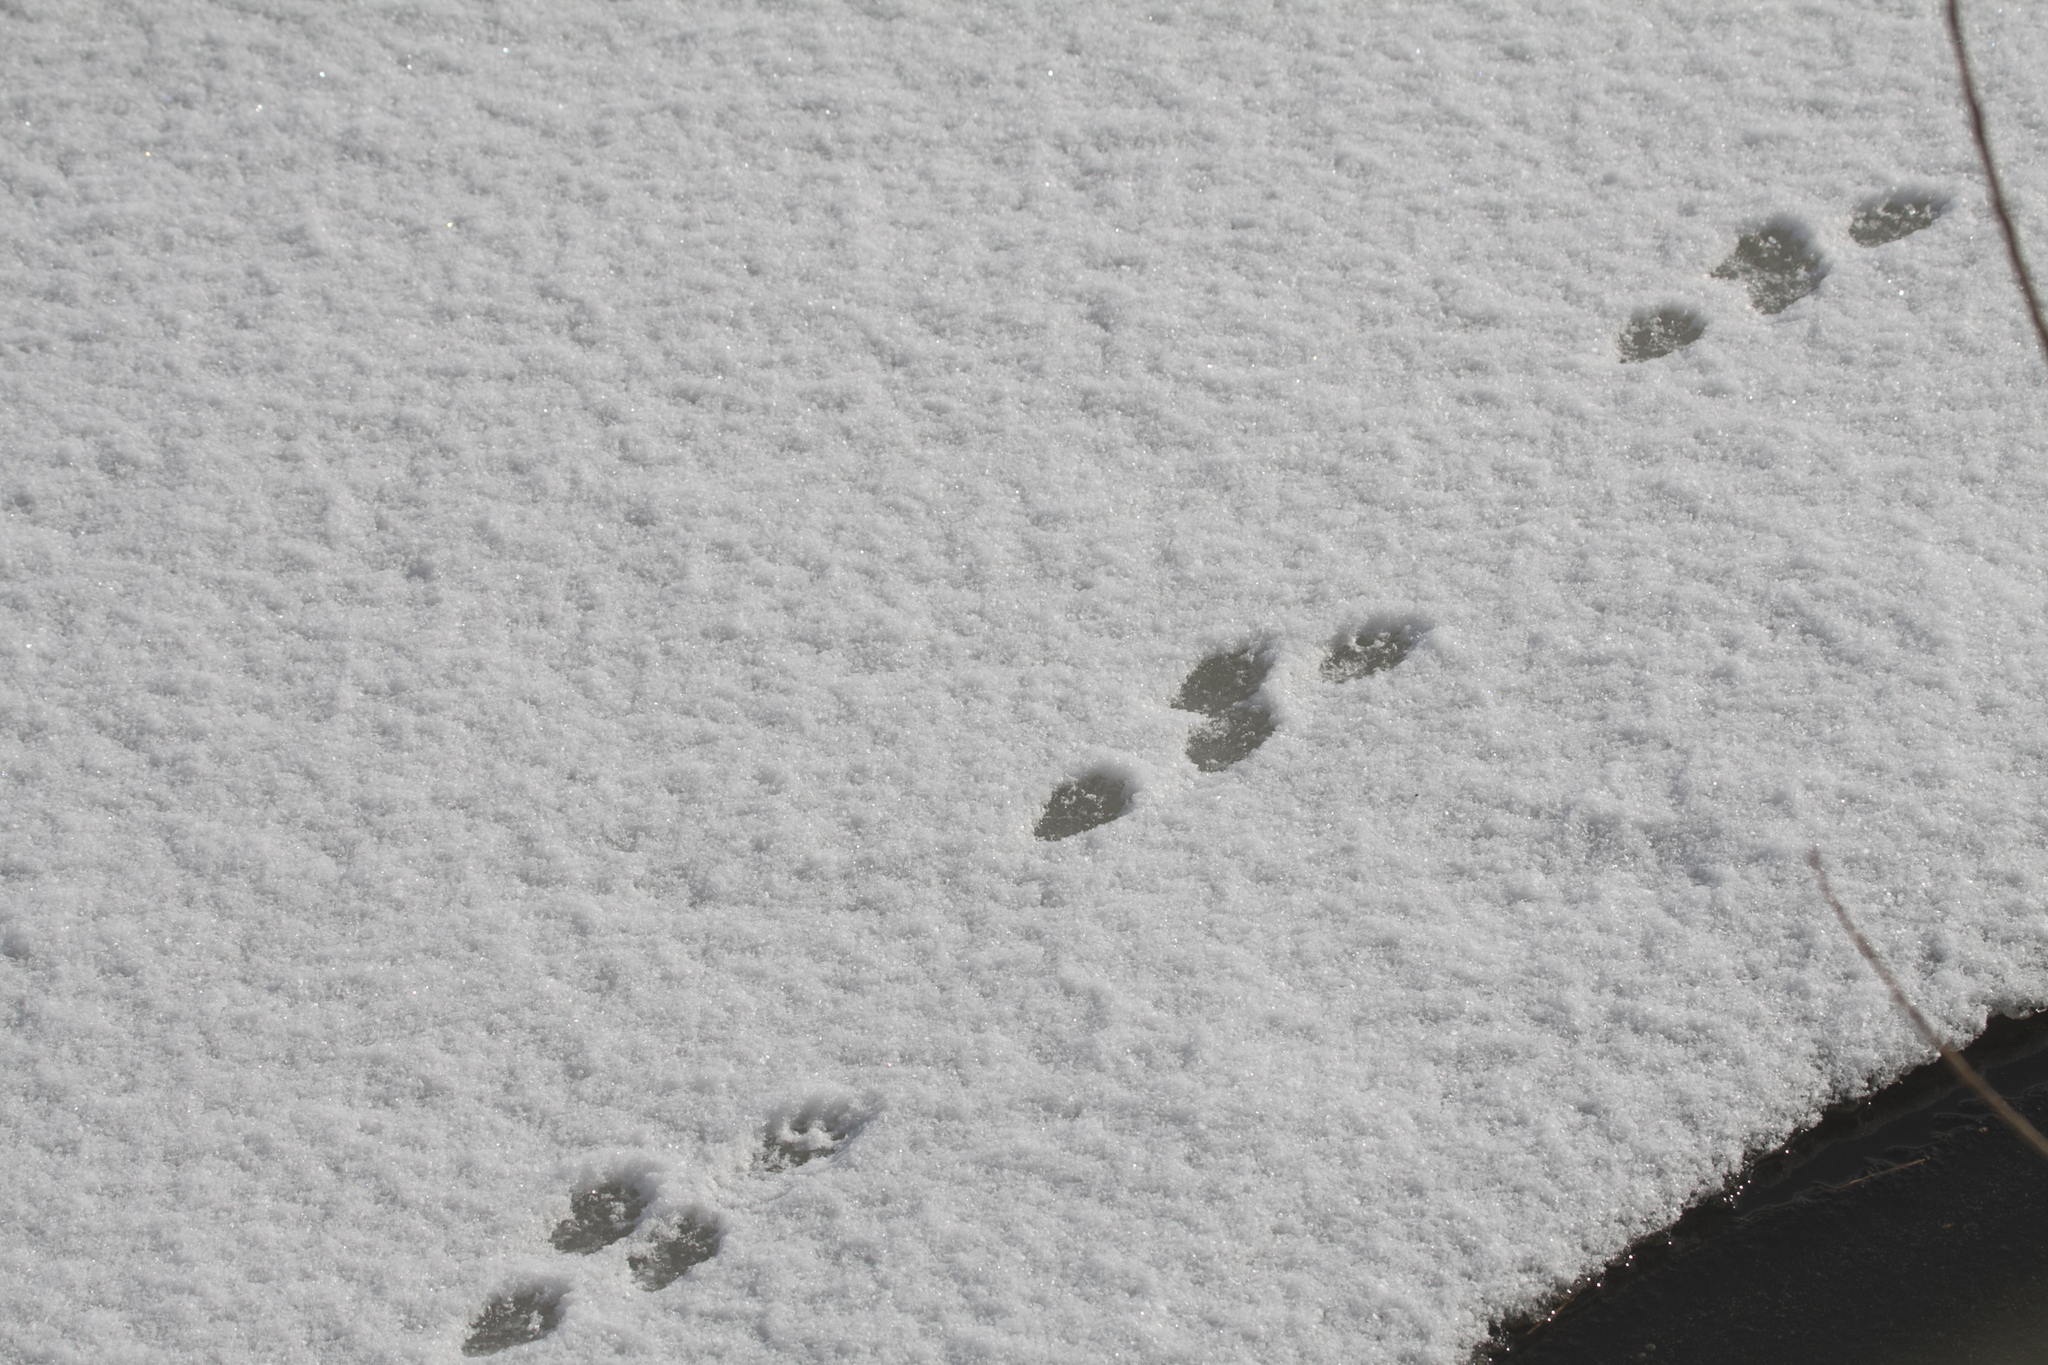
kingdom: Animalia
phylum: Chordata
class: Mammalia
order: Carnivora
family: Mustelidae
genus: Lutra
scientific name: Lutra lutra
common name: European otter
